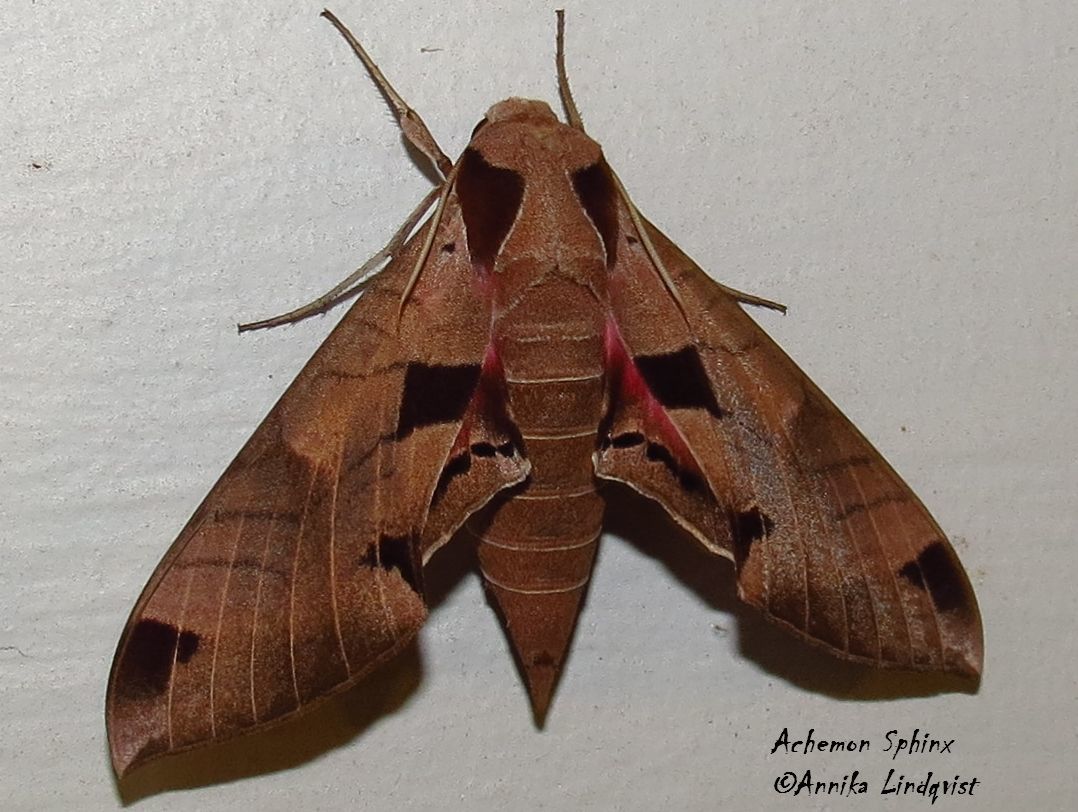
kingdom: Animalia
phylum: Arthropoda
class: Insecta
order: Lepidoptera
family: Sphingidae
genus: Eumorpha
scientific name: Eumorpha achemon
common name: Achemon sphinx
